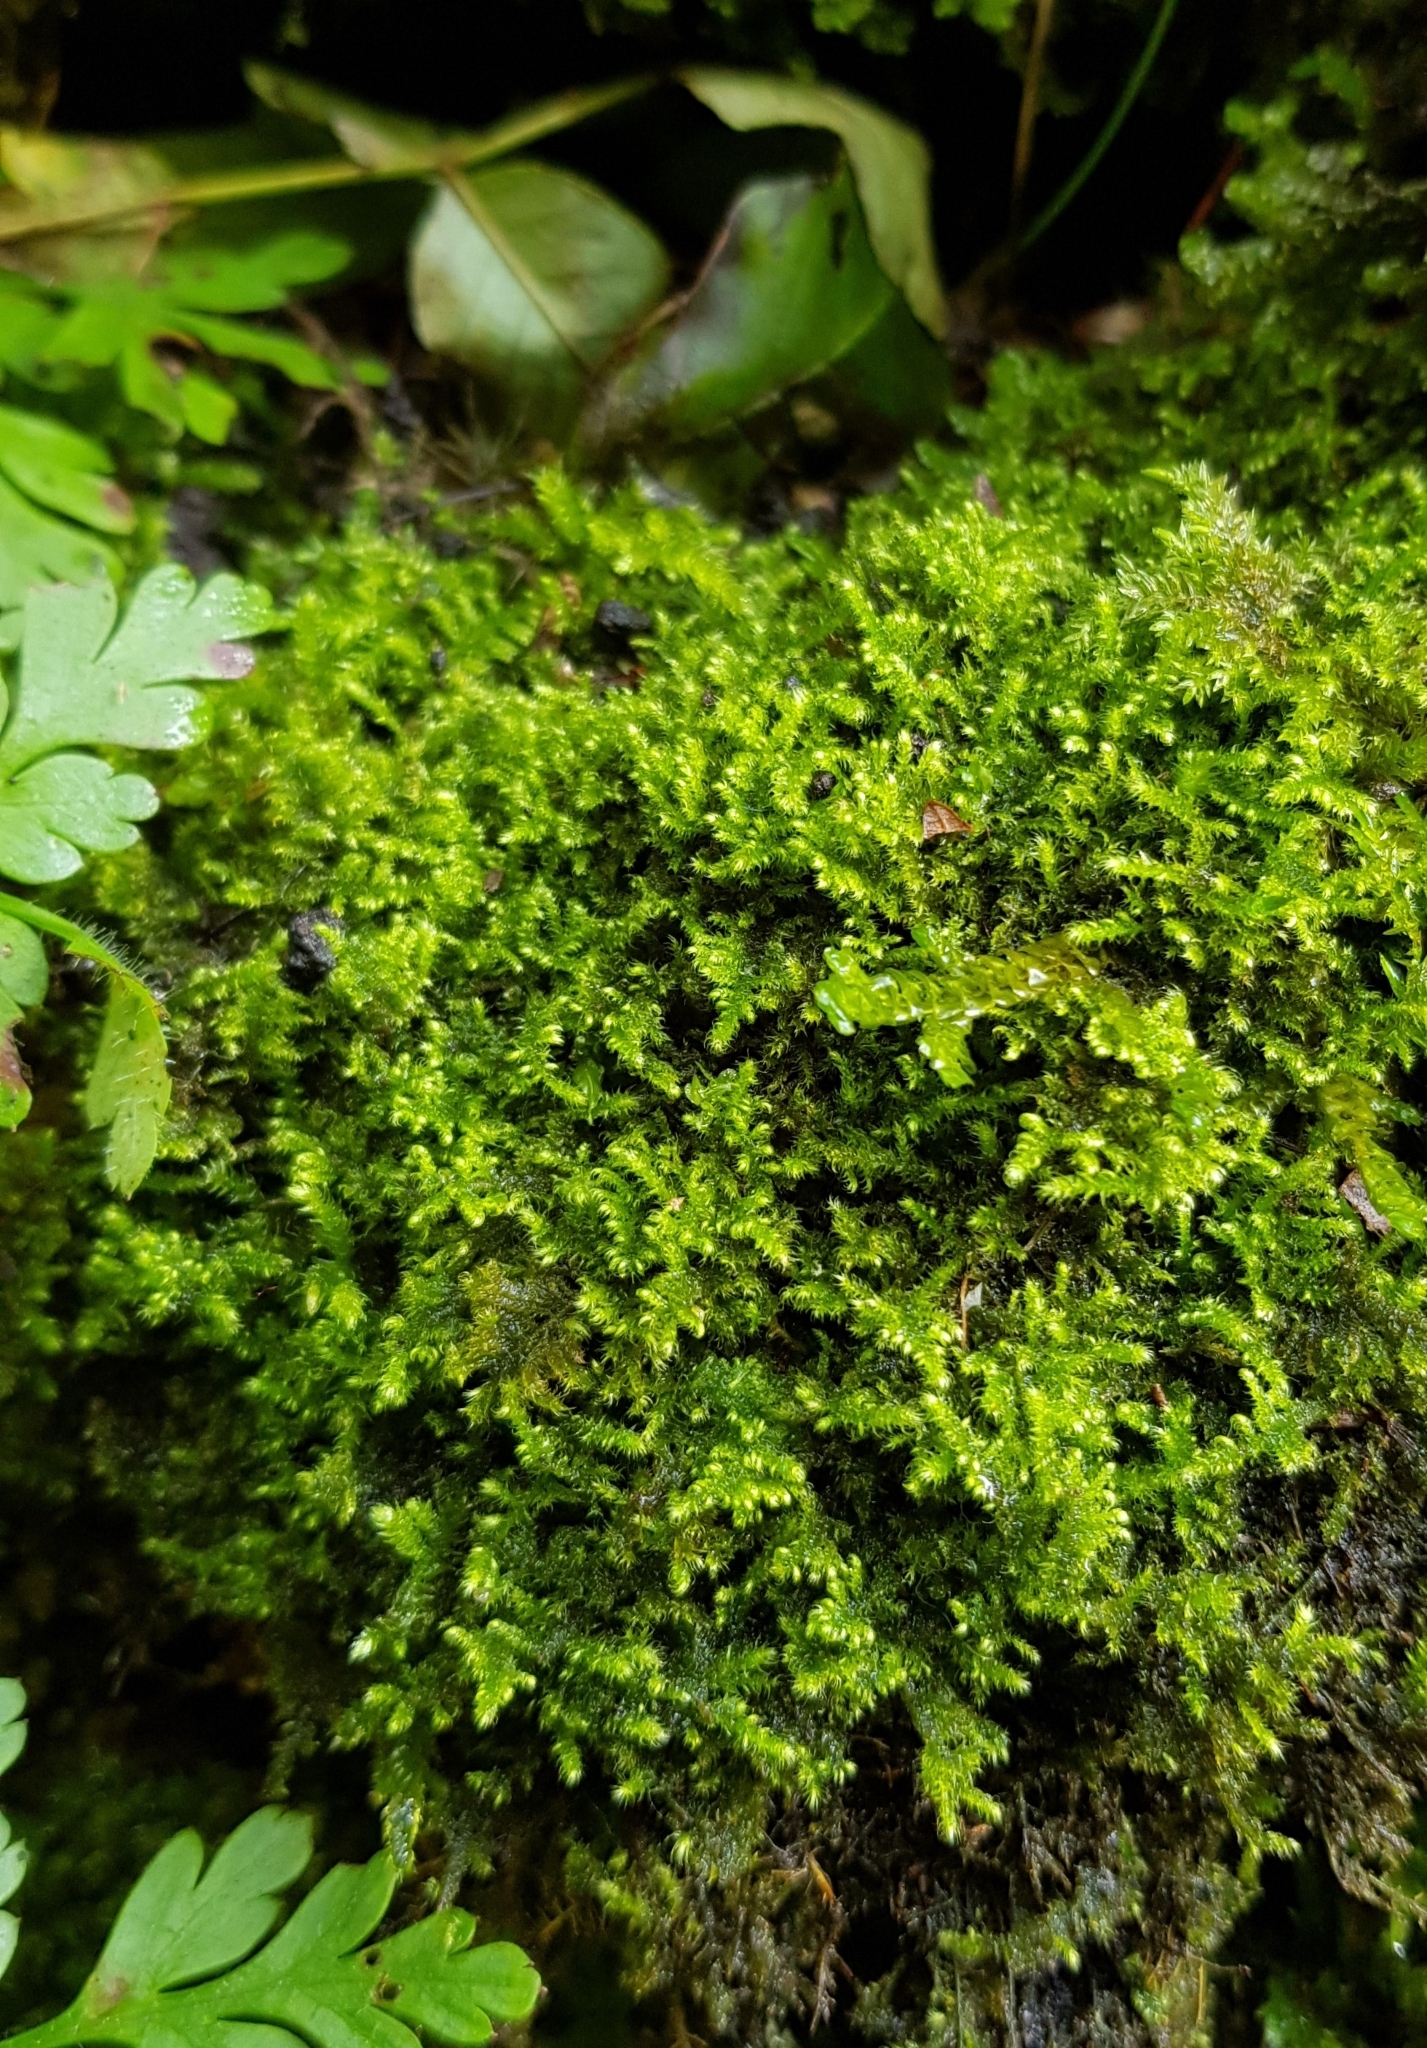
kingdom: Plantae
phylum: Bryophyta
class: Bryopsida
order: Hypnales
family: Myuriaceae
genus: Ctenidium
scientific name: Ctenidium molluscum
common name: Chalk comb-moss
